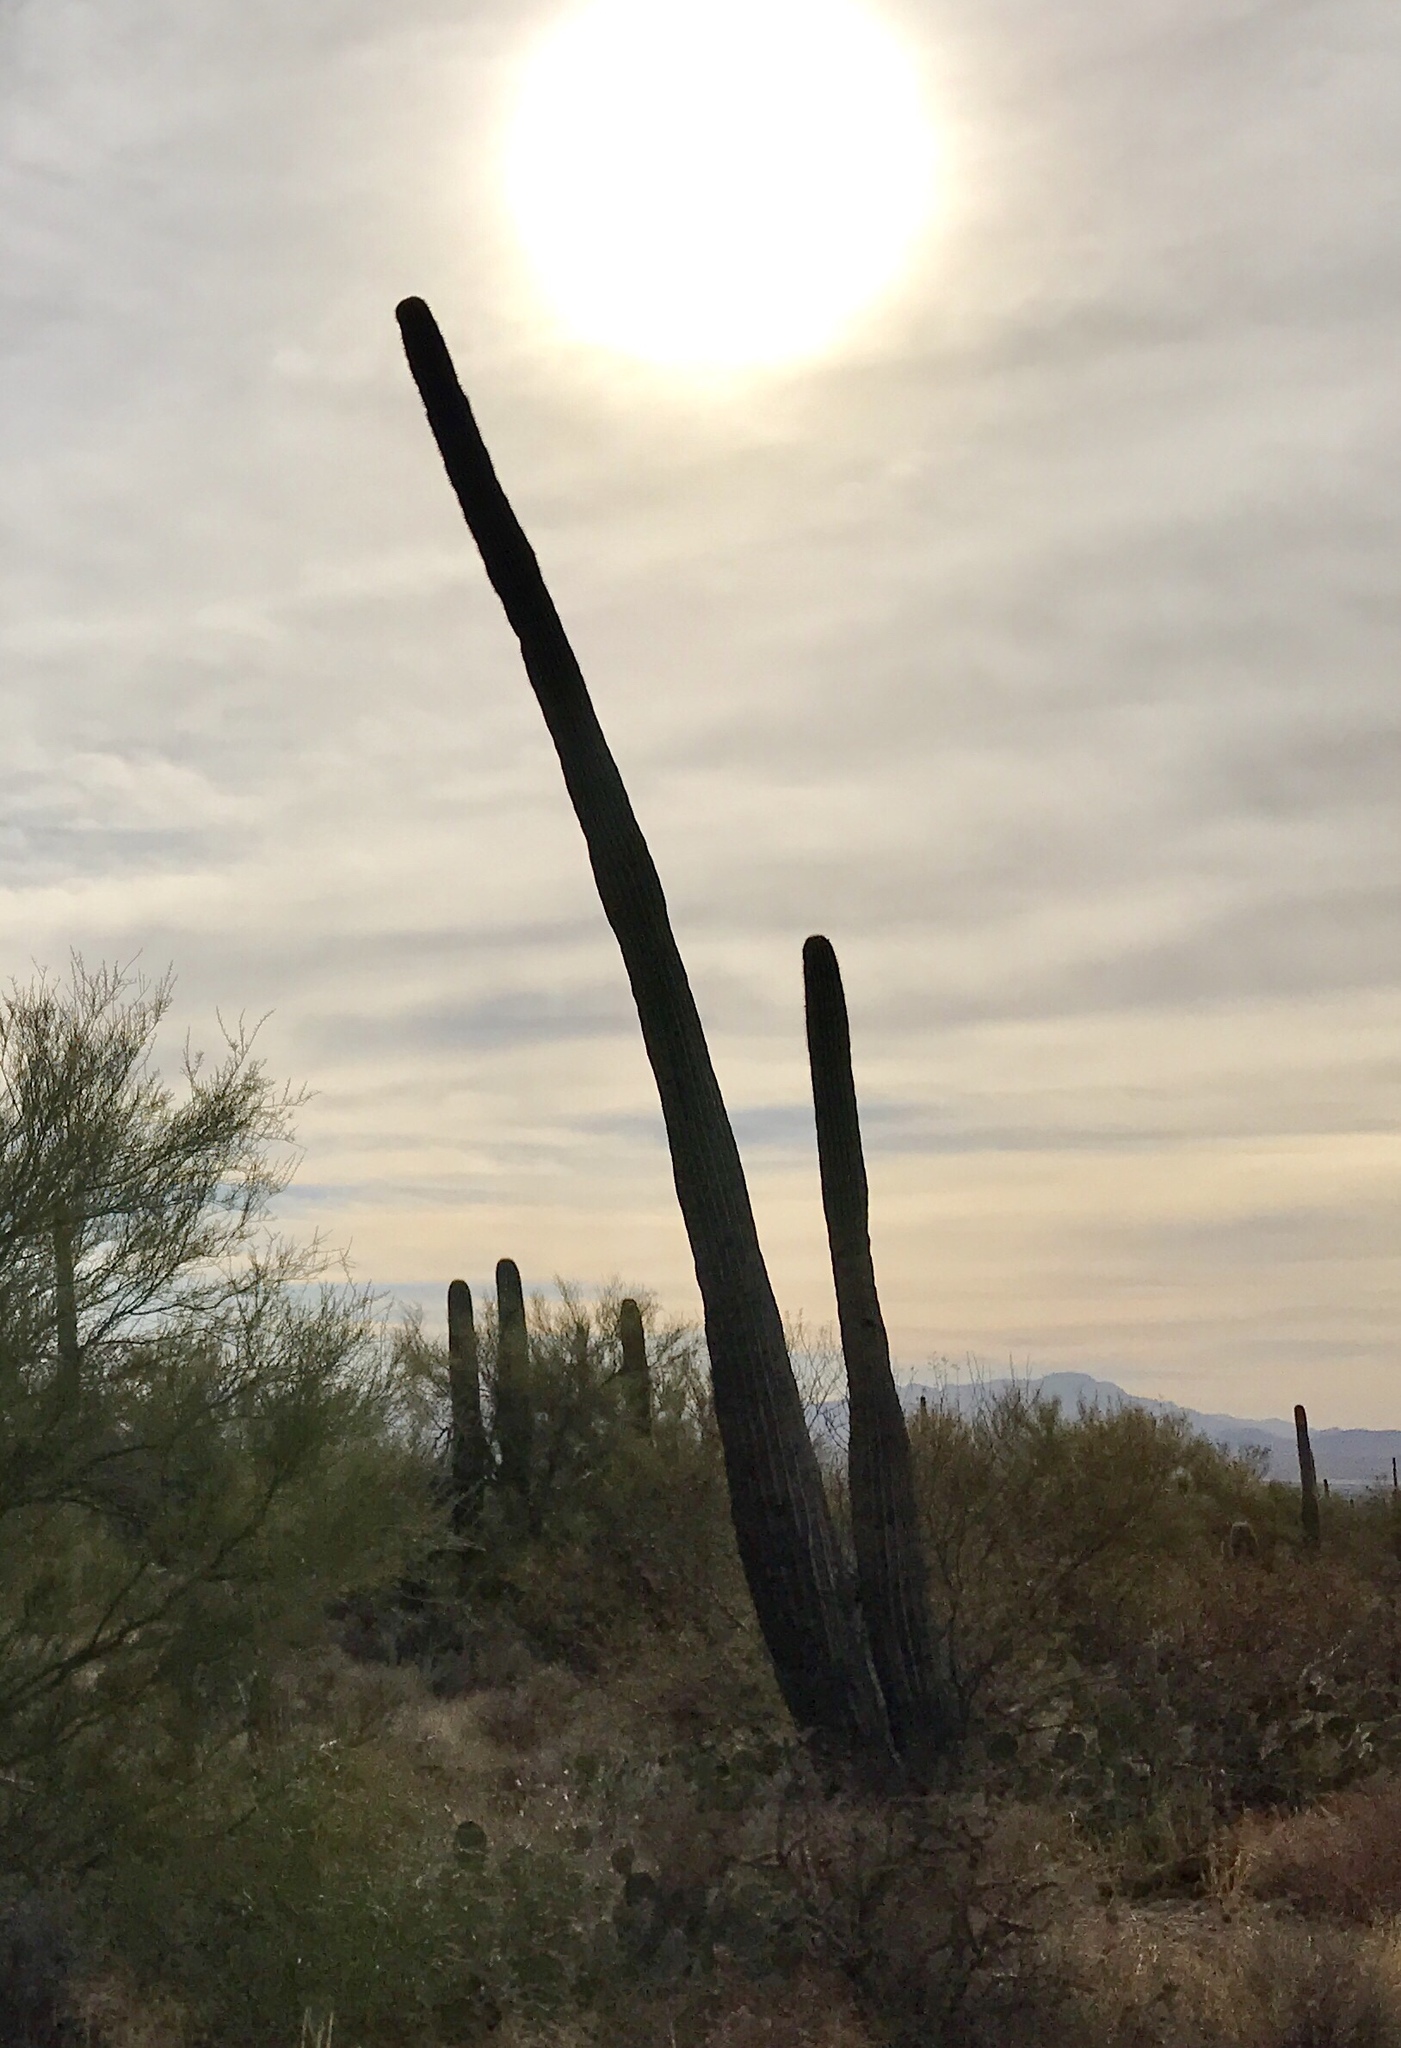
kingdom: Plantae
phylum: Tracheophyta
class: Magnoliopsida
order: Caryophyllales
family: Cactaceae
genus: Carnegiea
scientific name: Carnegiea gigantea
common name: Saguaro
